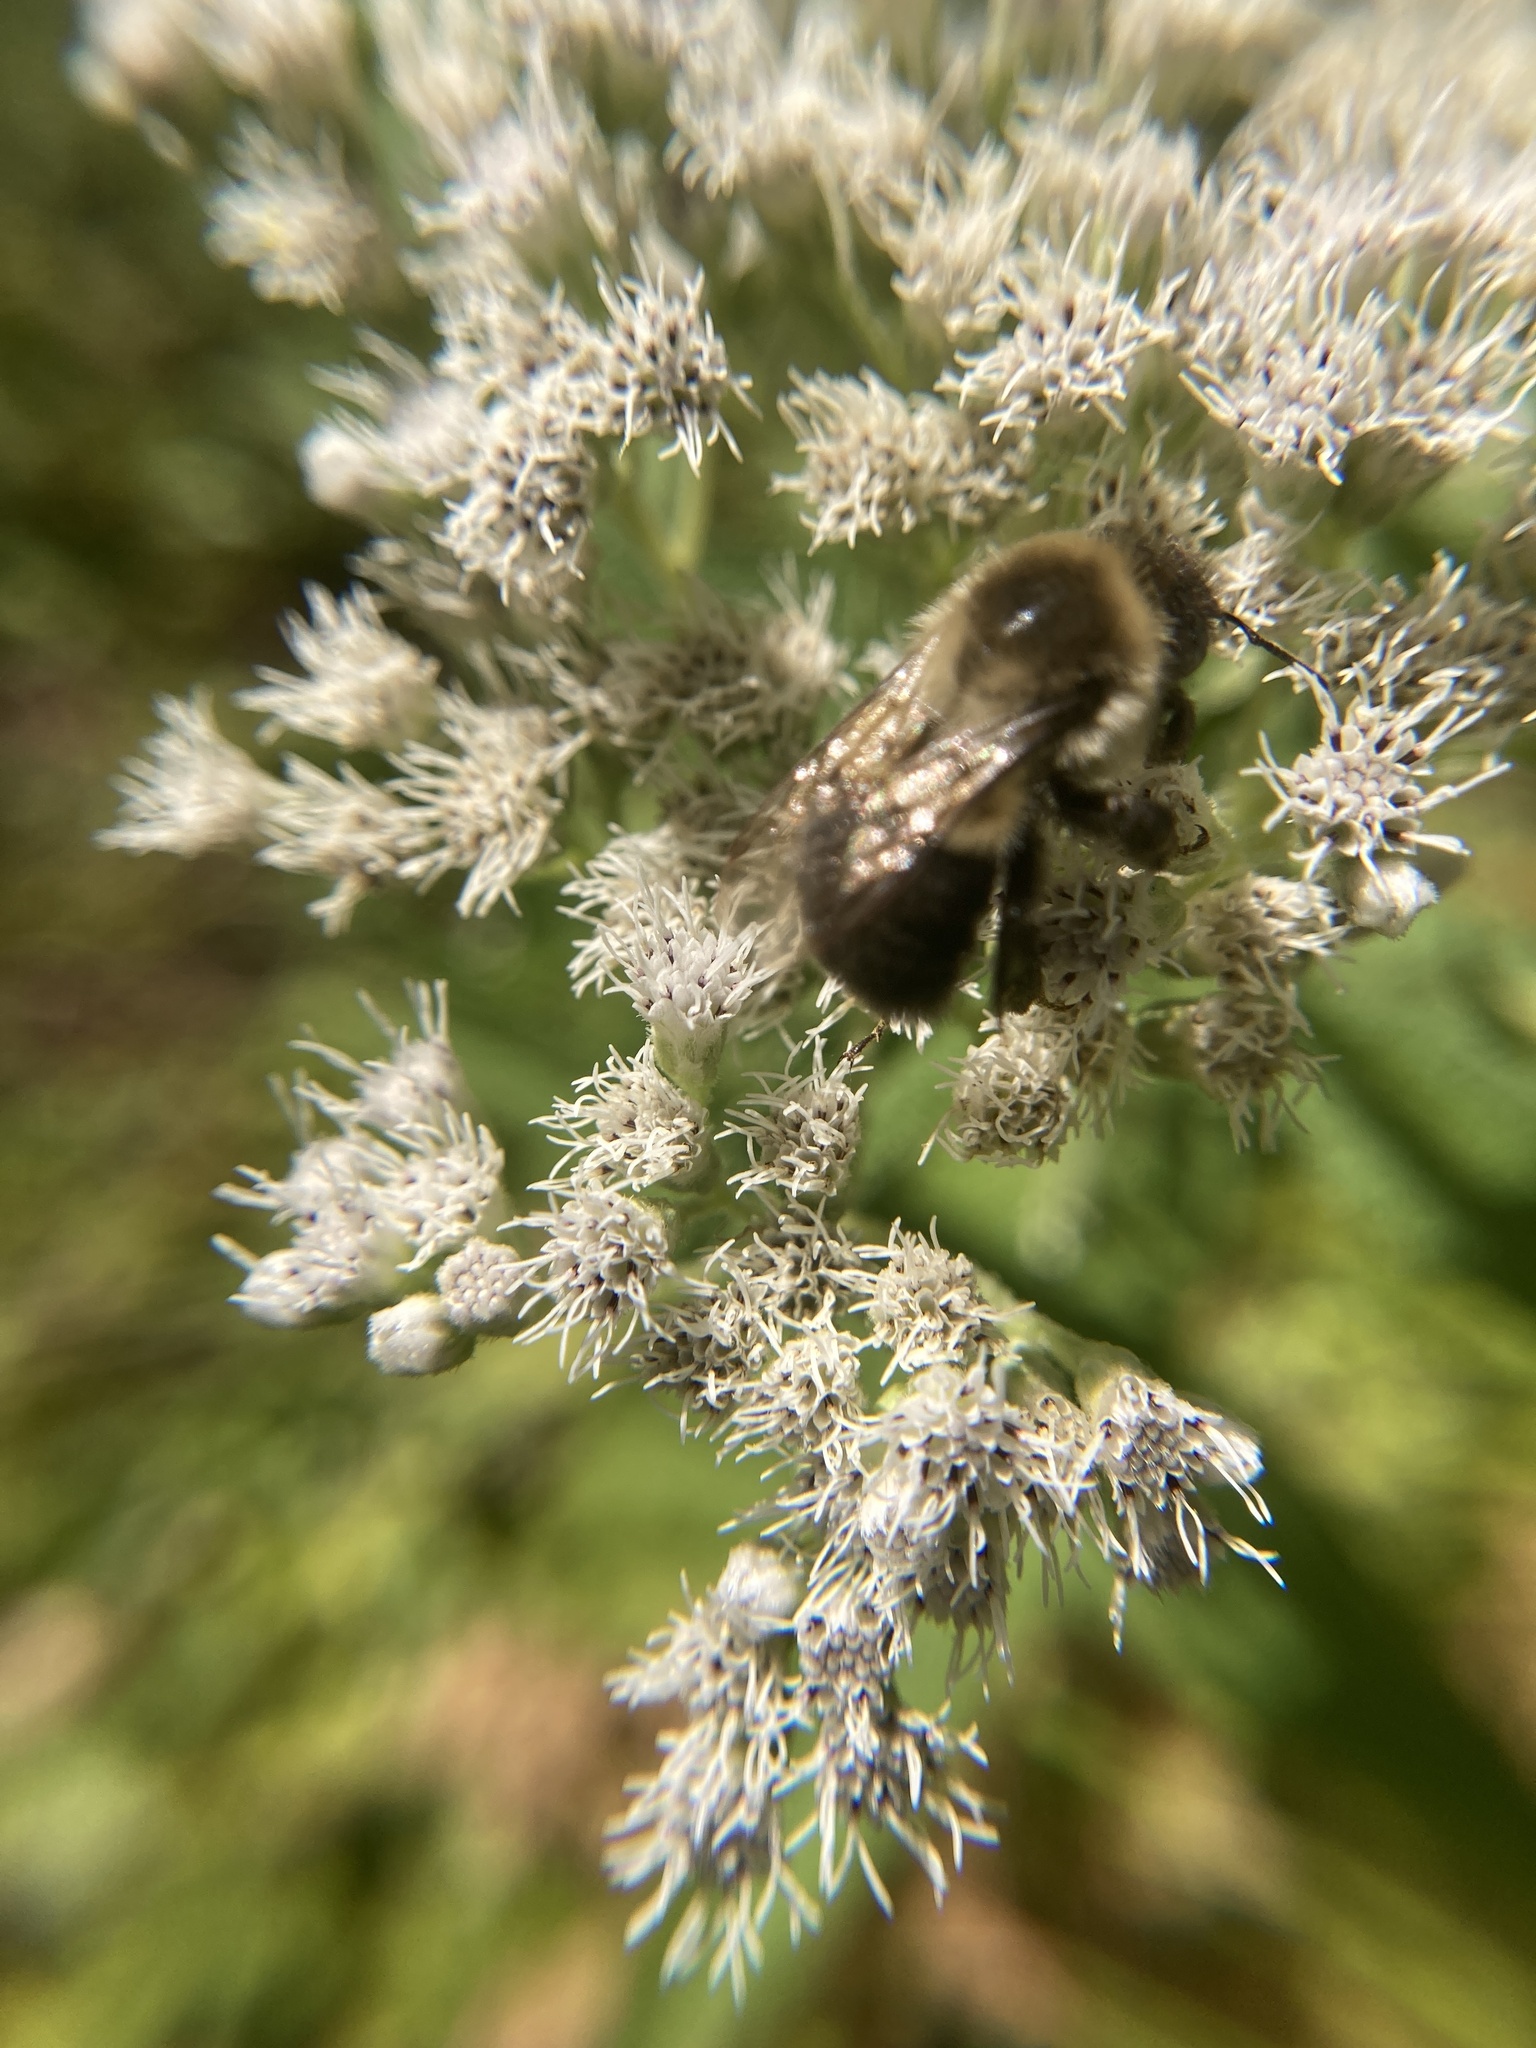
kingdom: Animalia
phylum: Arthropoda
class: Insecta
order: Hymenoptera
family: Apidae
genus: Bombus
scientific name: Bombus impatiens
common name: Common eastern bumble bee
